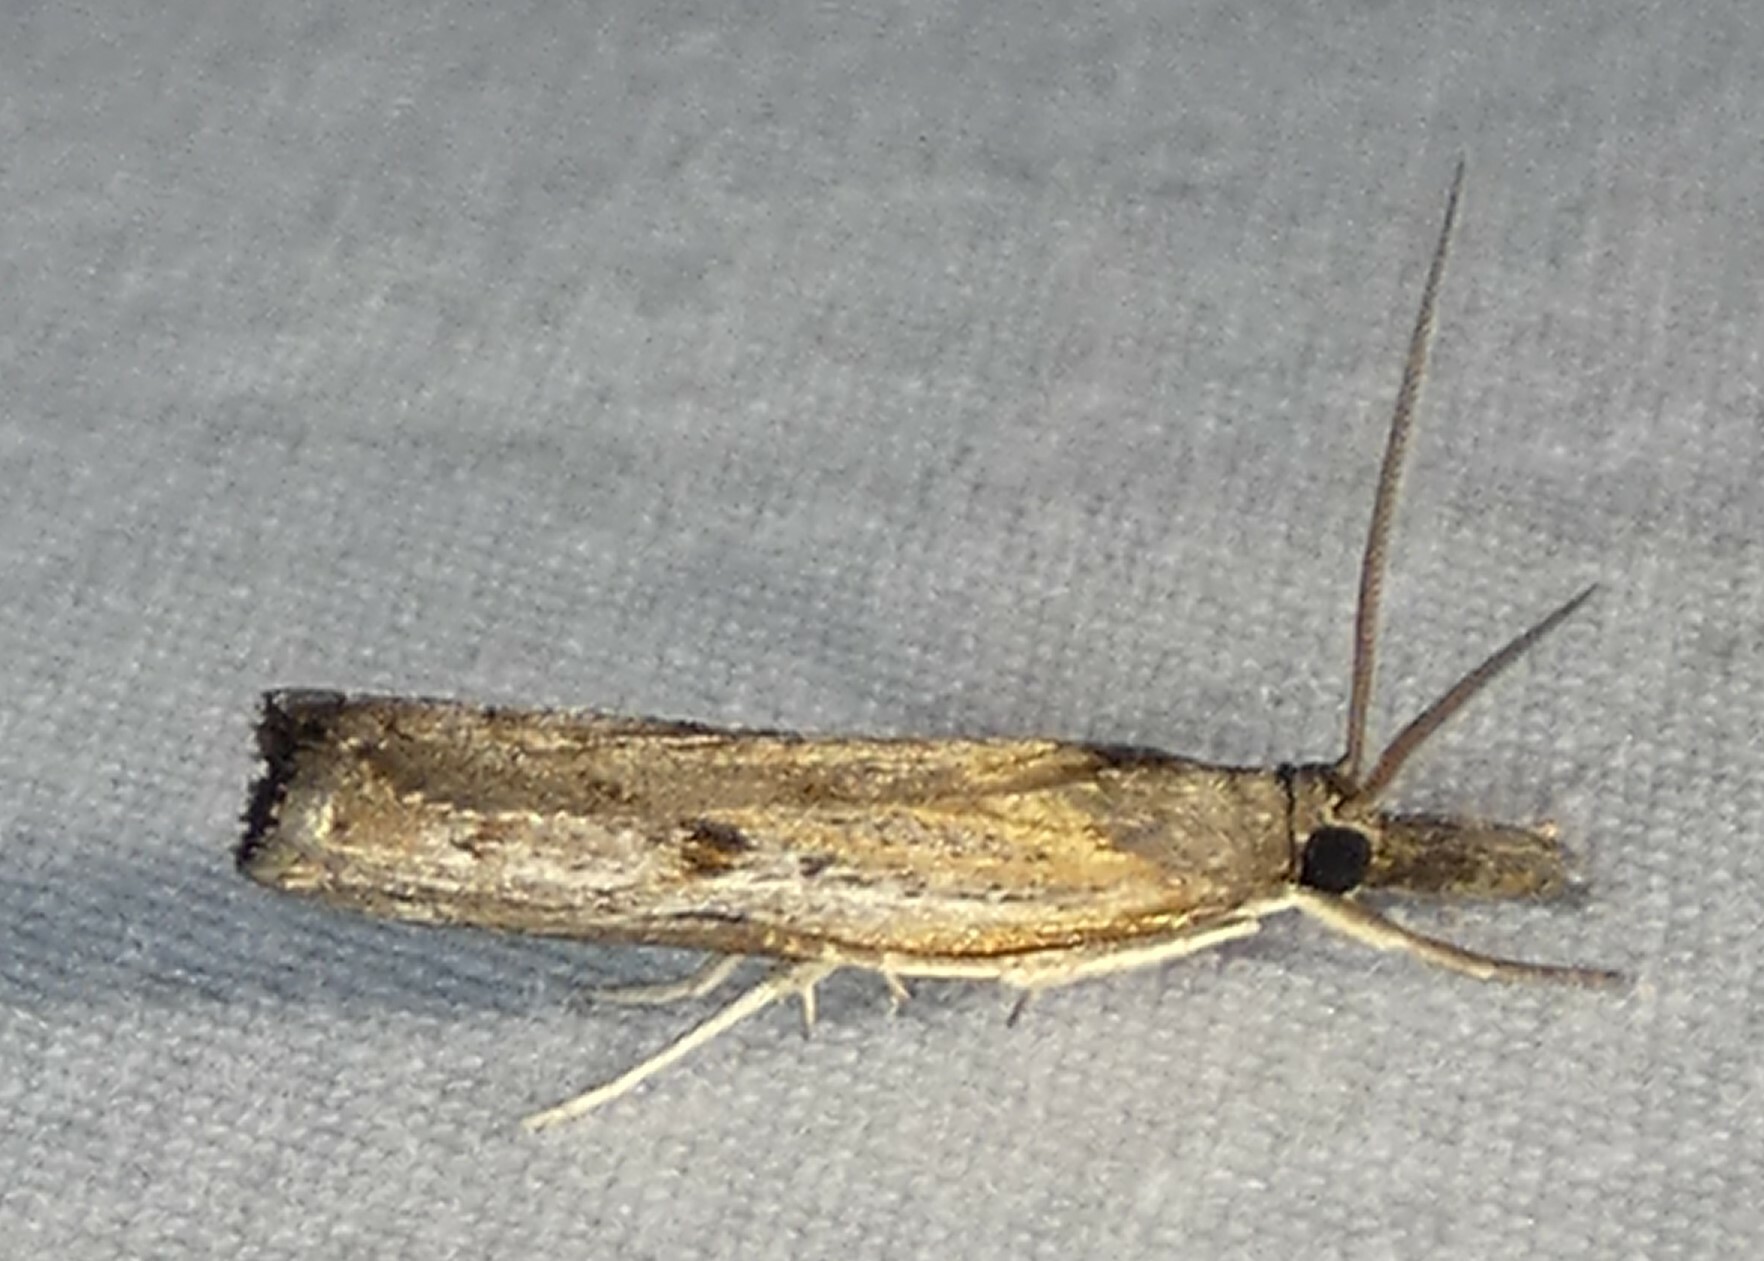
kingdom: Animalia
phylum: Arthropoda
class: Insecta
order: Lepidoptera
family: Crambidae
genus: Fissicrambus
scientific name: Fissicrambus mutabilis
